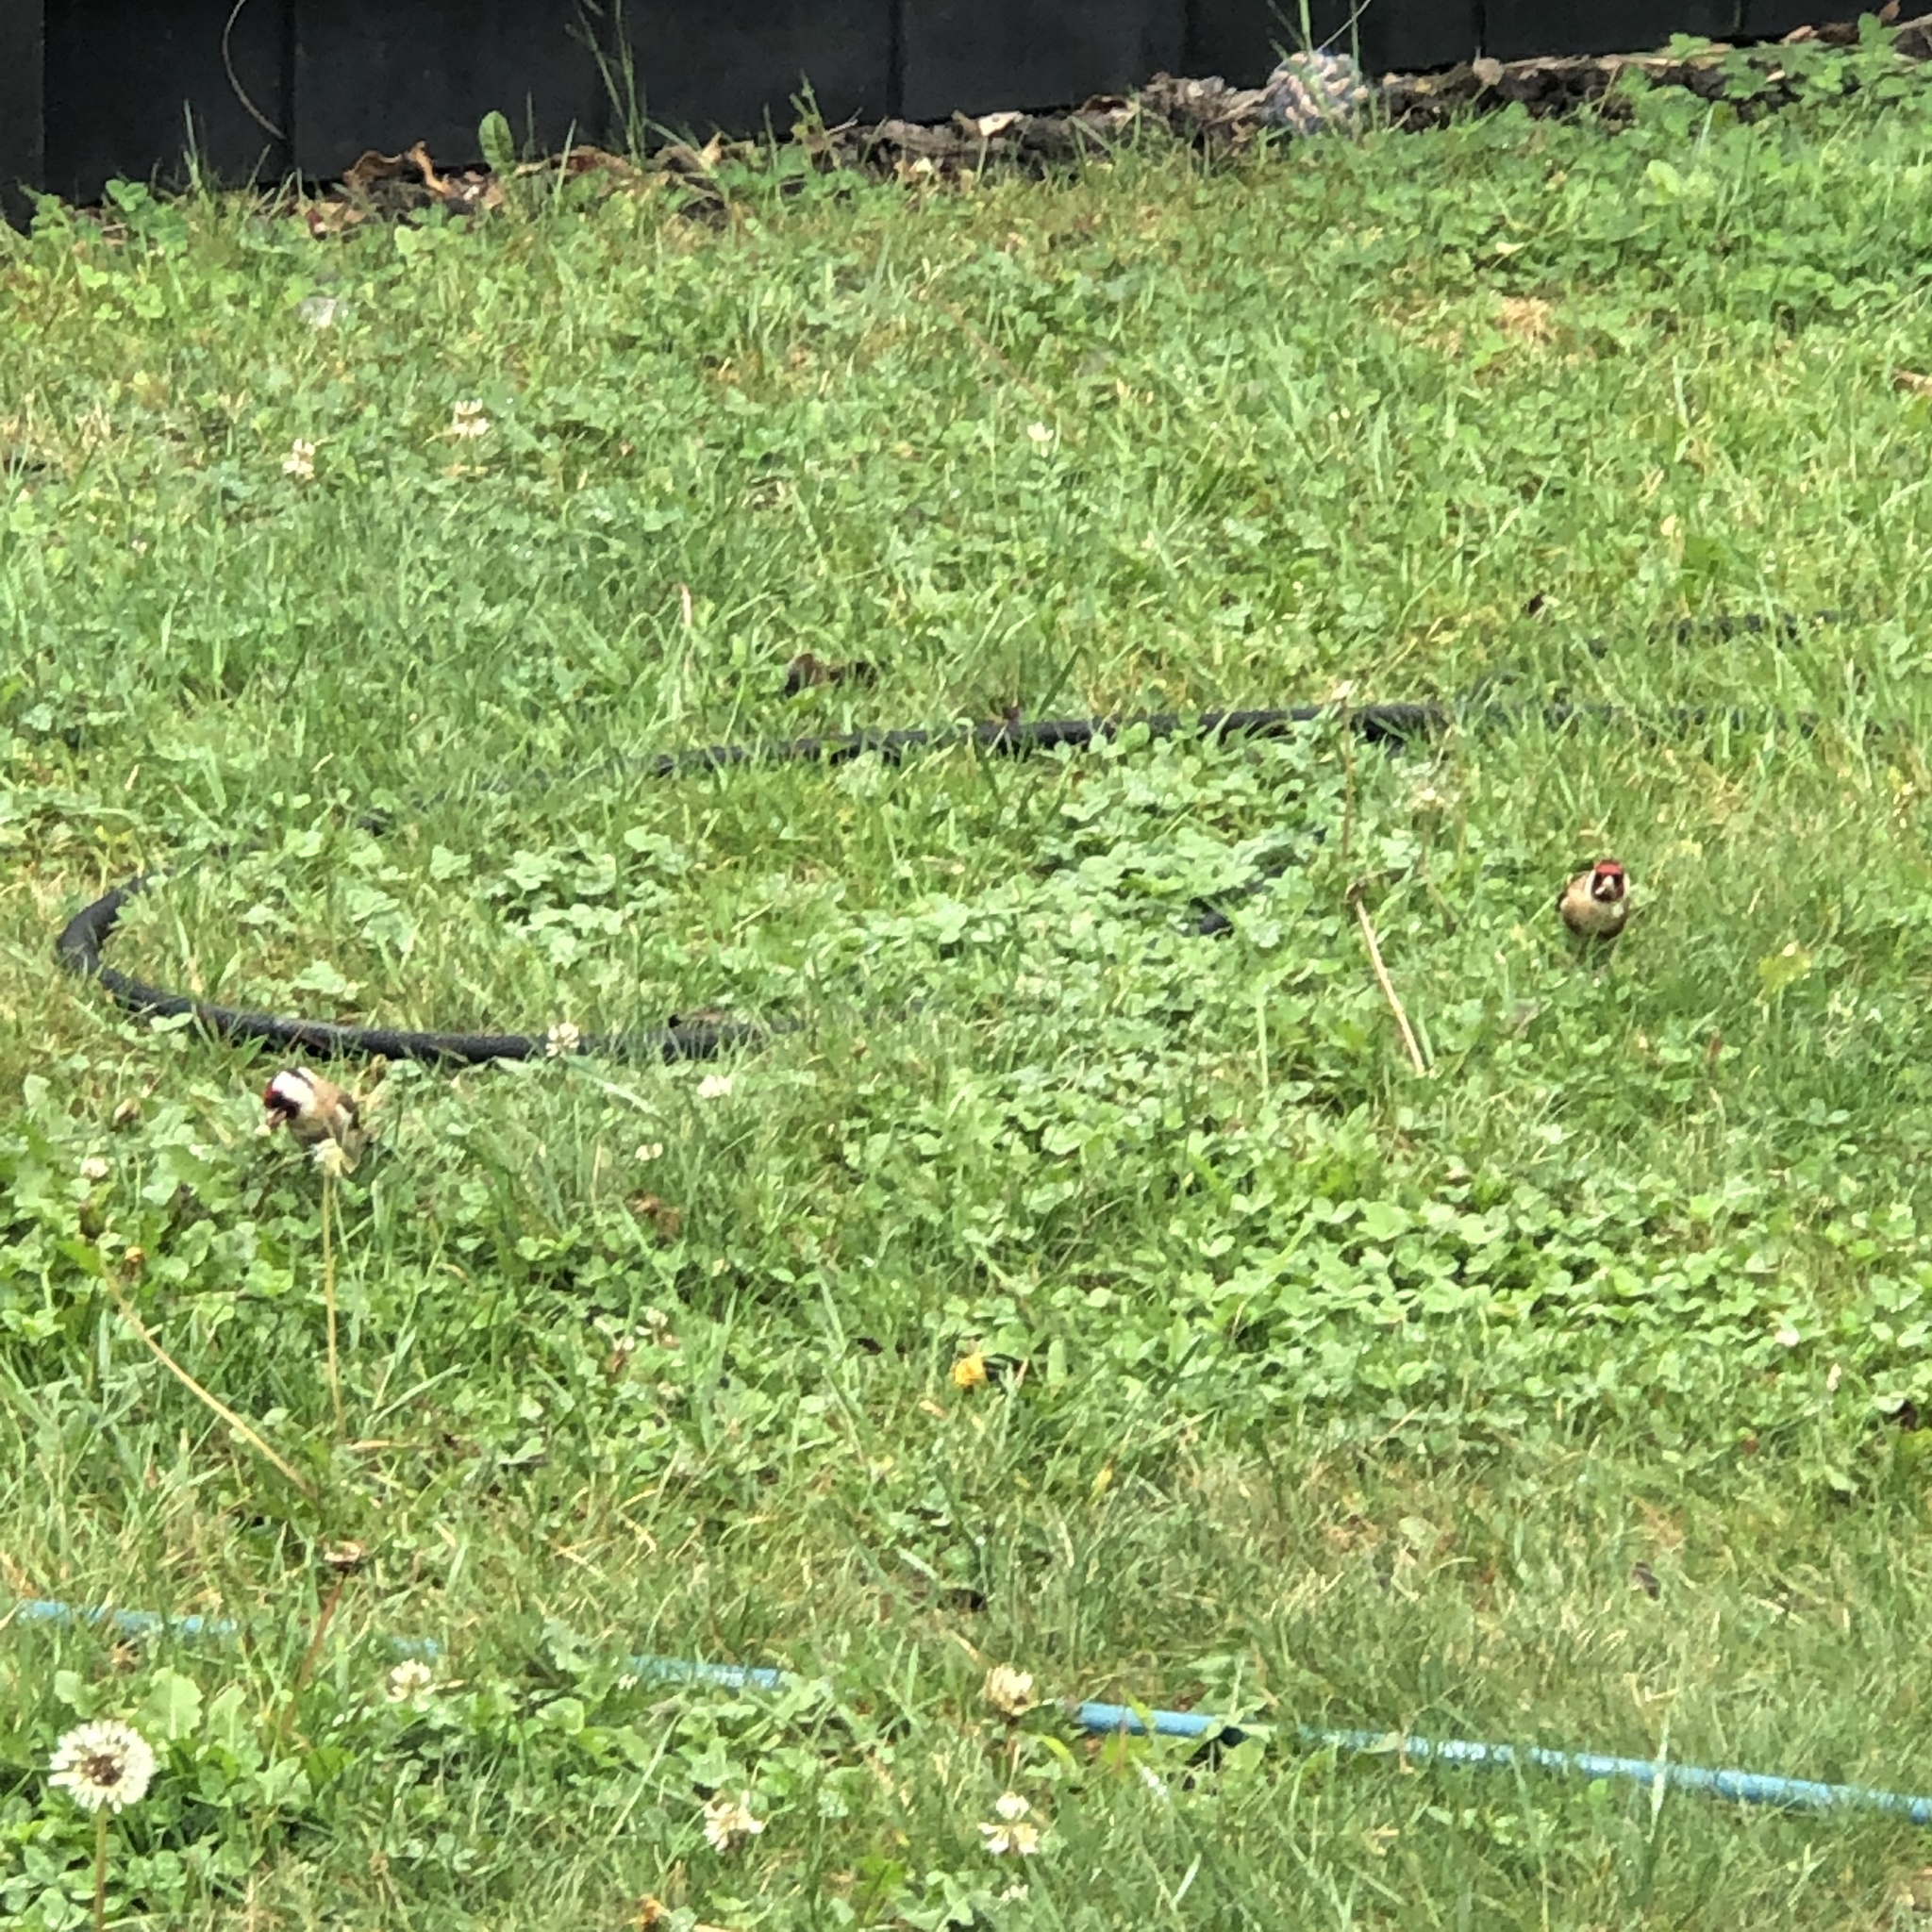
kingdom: Animalia
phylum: Chordata
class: Aves
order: Passeriformes
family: Fringillidae
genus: Carduelis
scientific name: Carduelis carduelis
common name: European goldfinch
